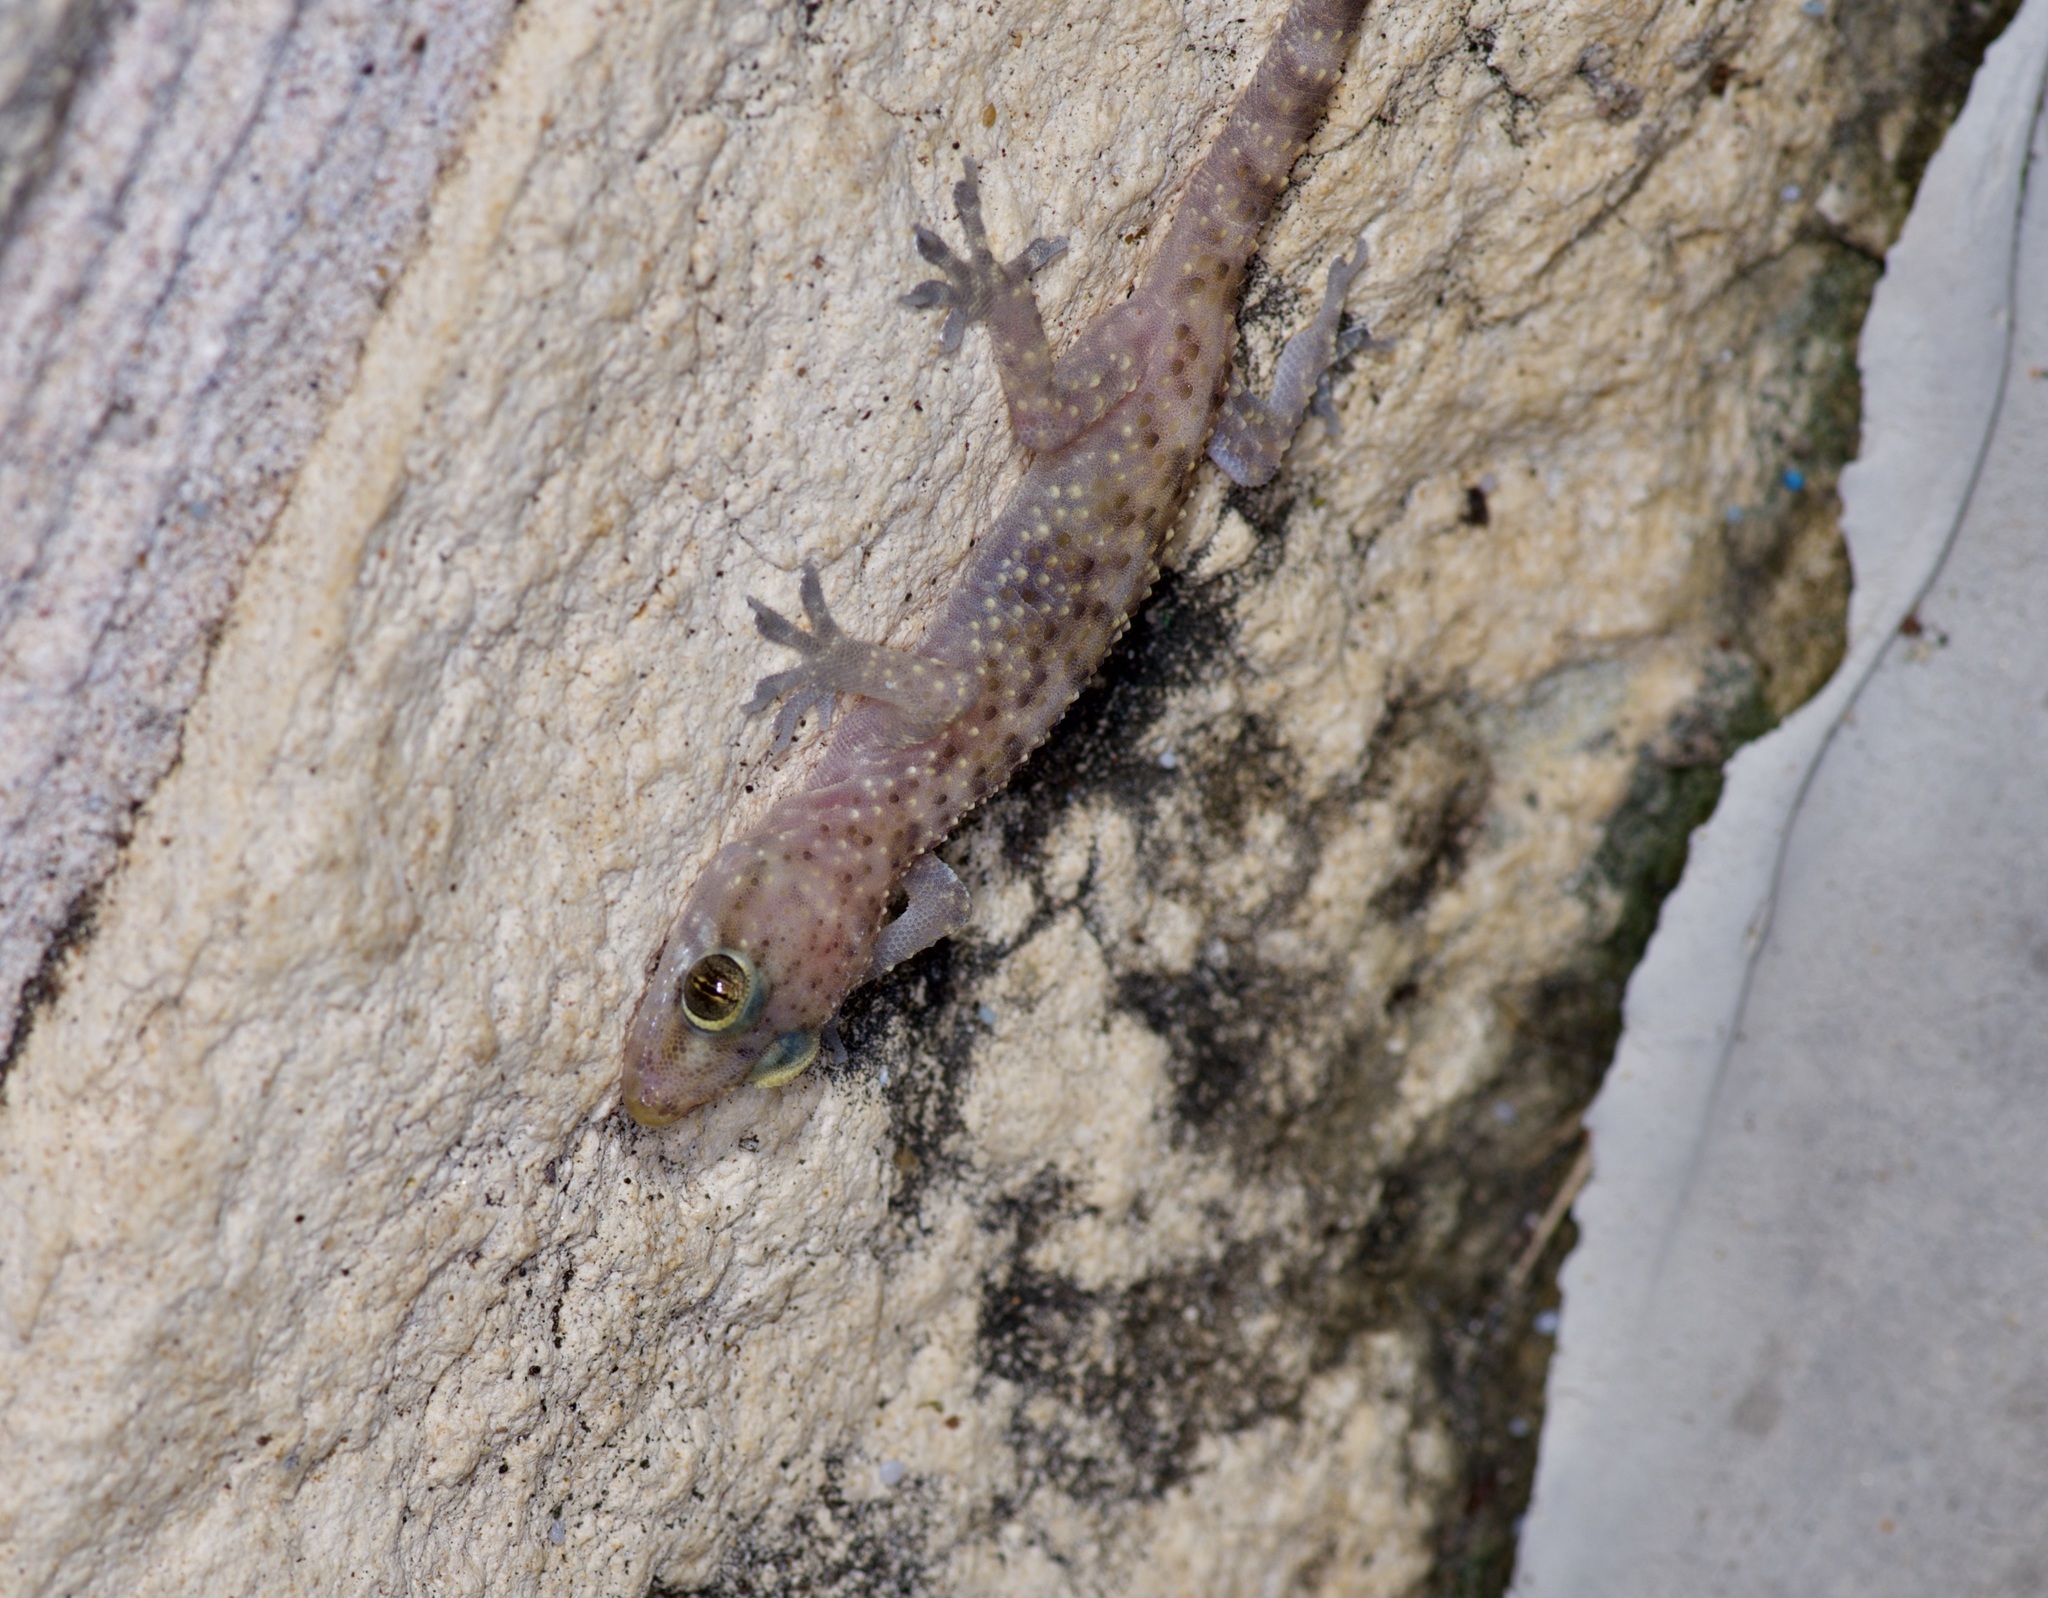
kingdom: Animalia
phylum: Chordata
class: Squamata
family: Gekkonidae
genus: Hemidactylus
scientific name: Hemidactylus turcicus
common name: Turkish gecko
